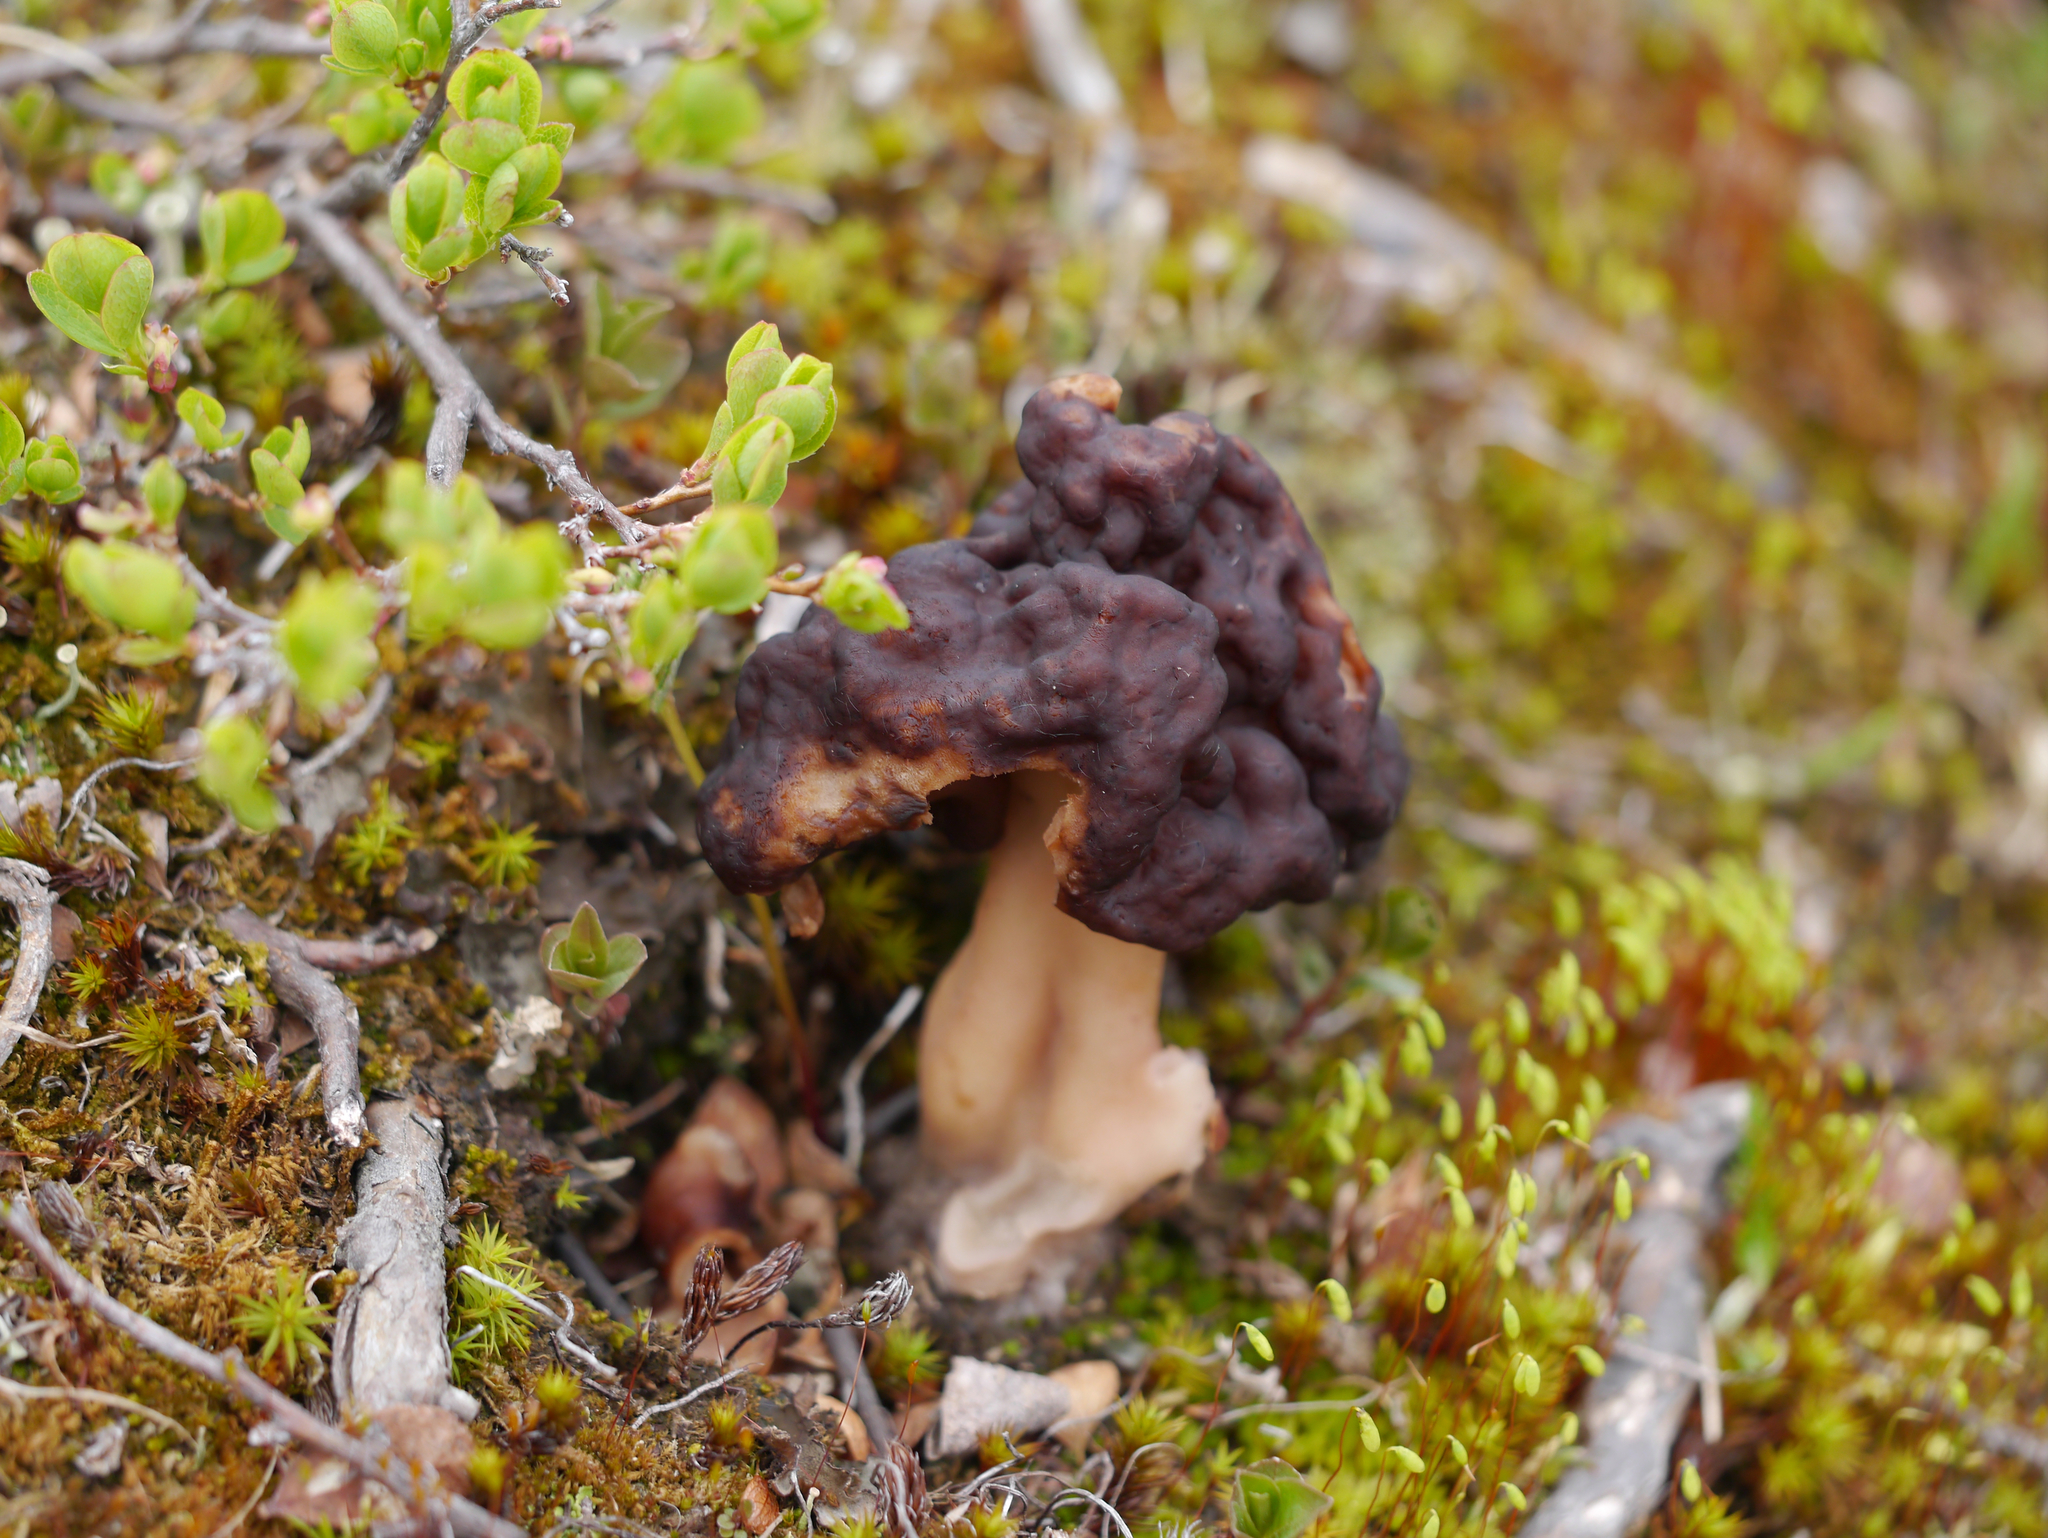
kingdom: Fungi
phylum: Ascomycota
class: Pezizomycetes
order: Pezizales
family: Discinaceae
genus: Gyromitra
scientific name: Gyromitra esculenta
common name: False morel
